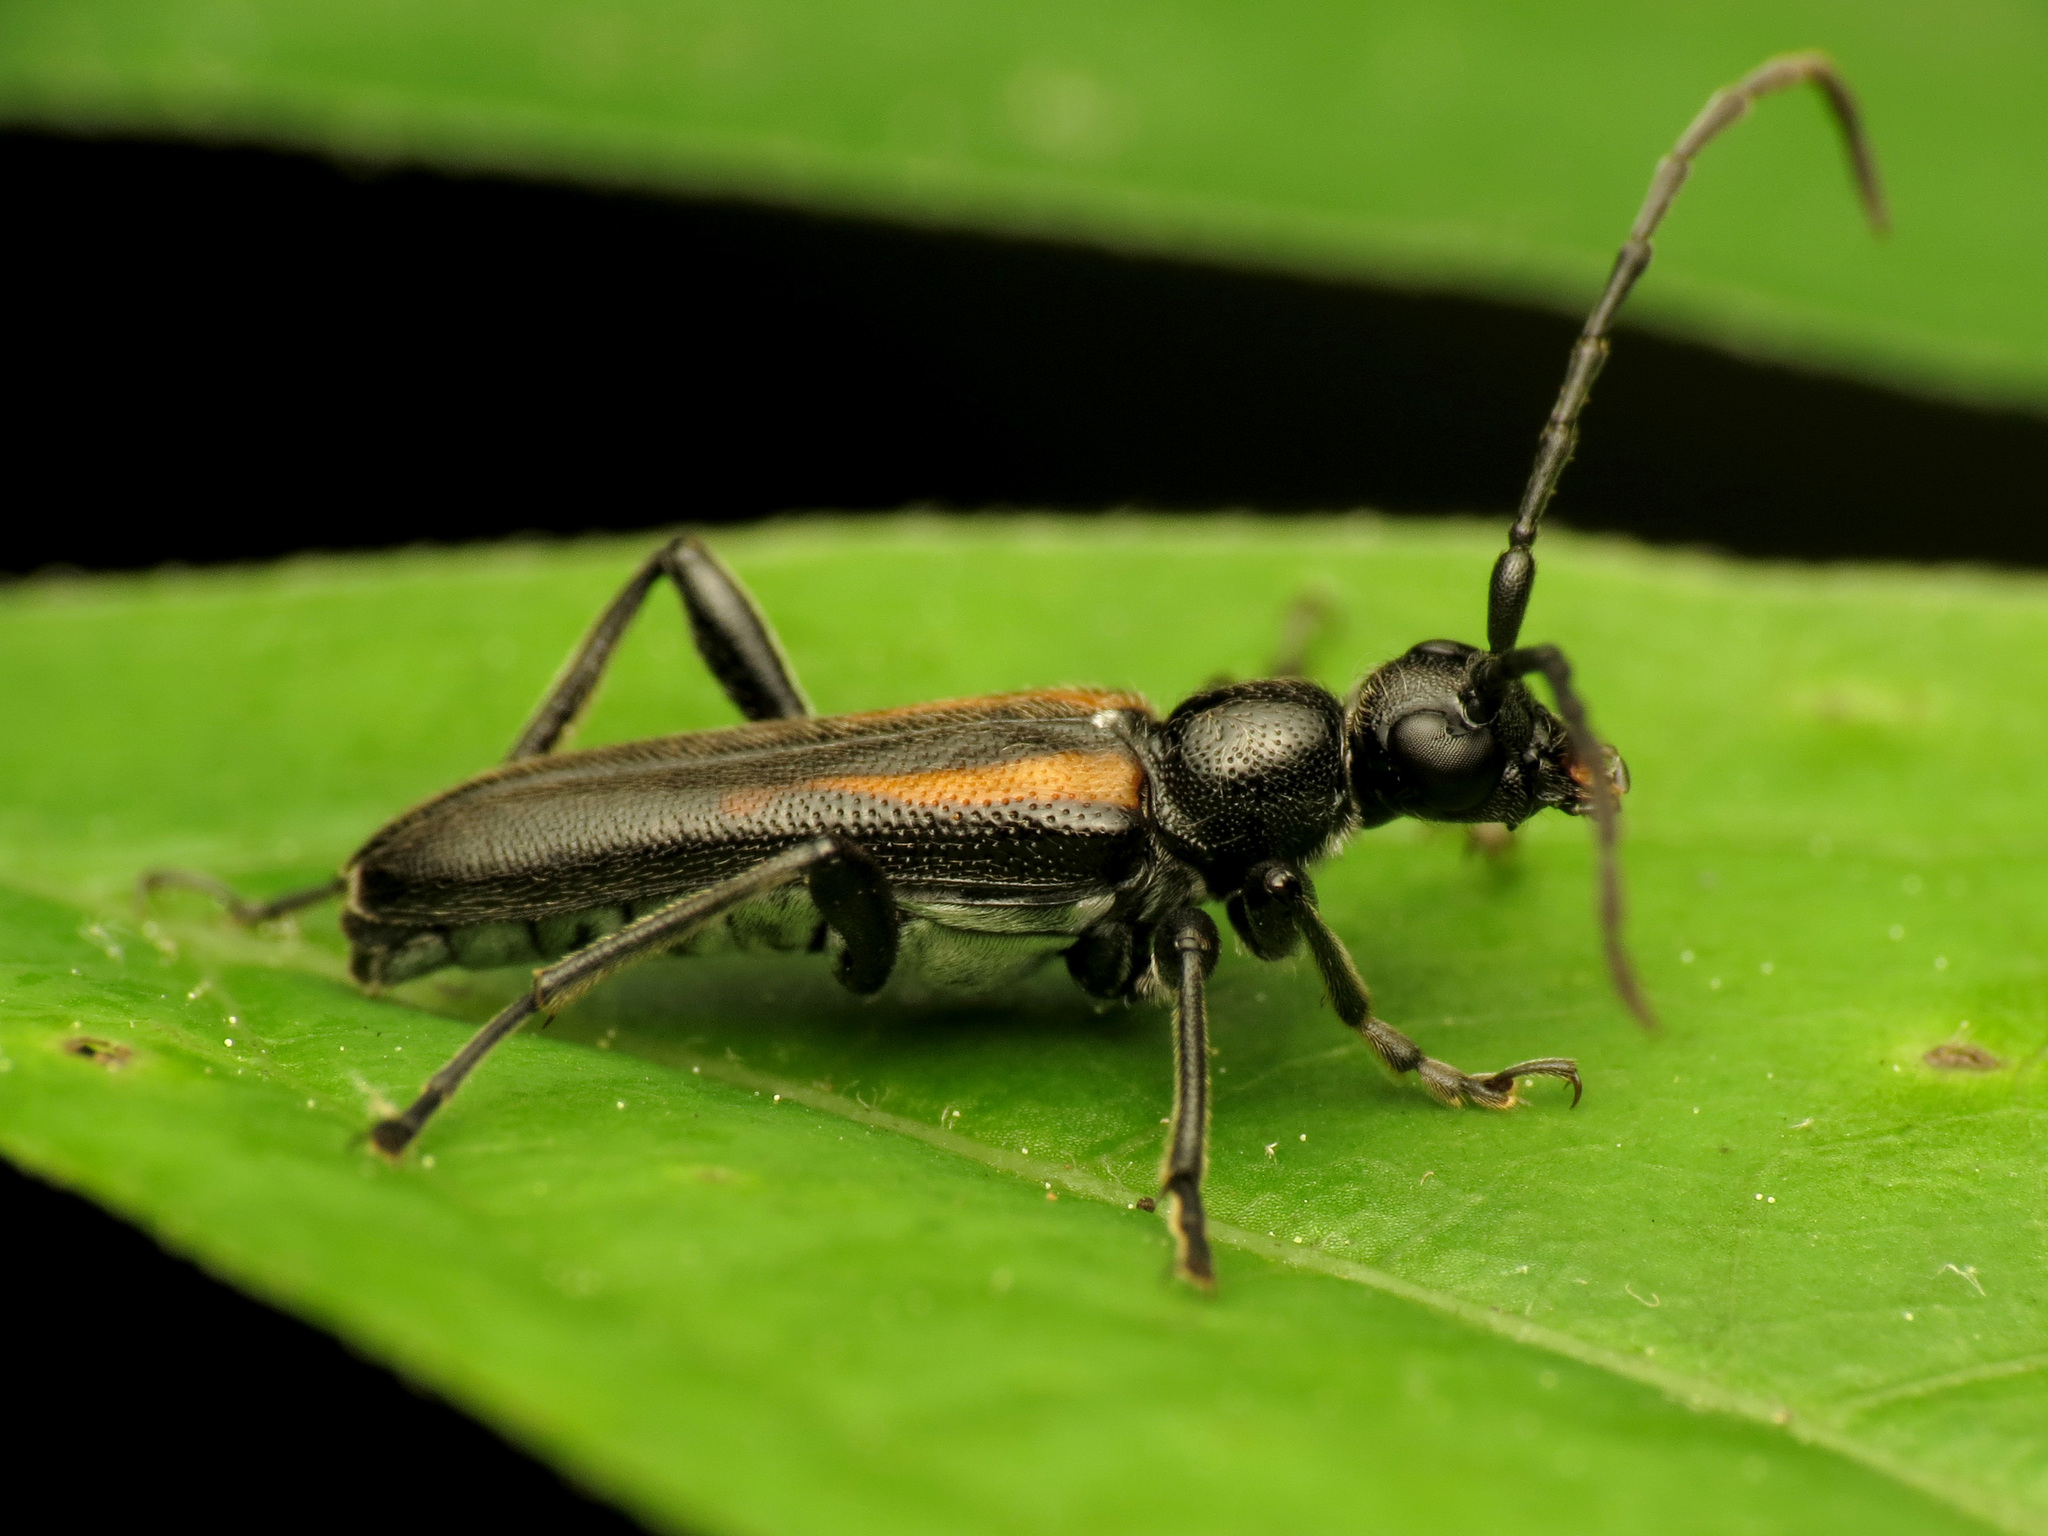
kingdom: Animalia
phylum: Arthropoda
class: Insecta
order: Coleoptera
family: Cerambycidae
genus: Strangalepta
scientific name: Strangalepta abbreviata
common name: Strangalepta flower longhorn beetle
